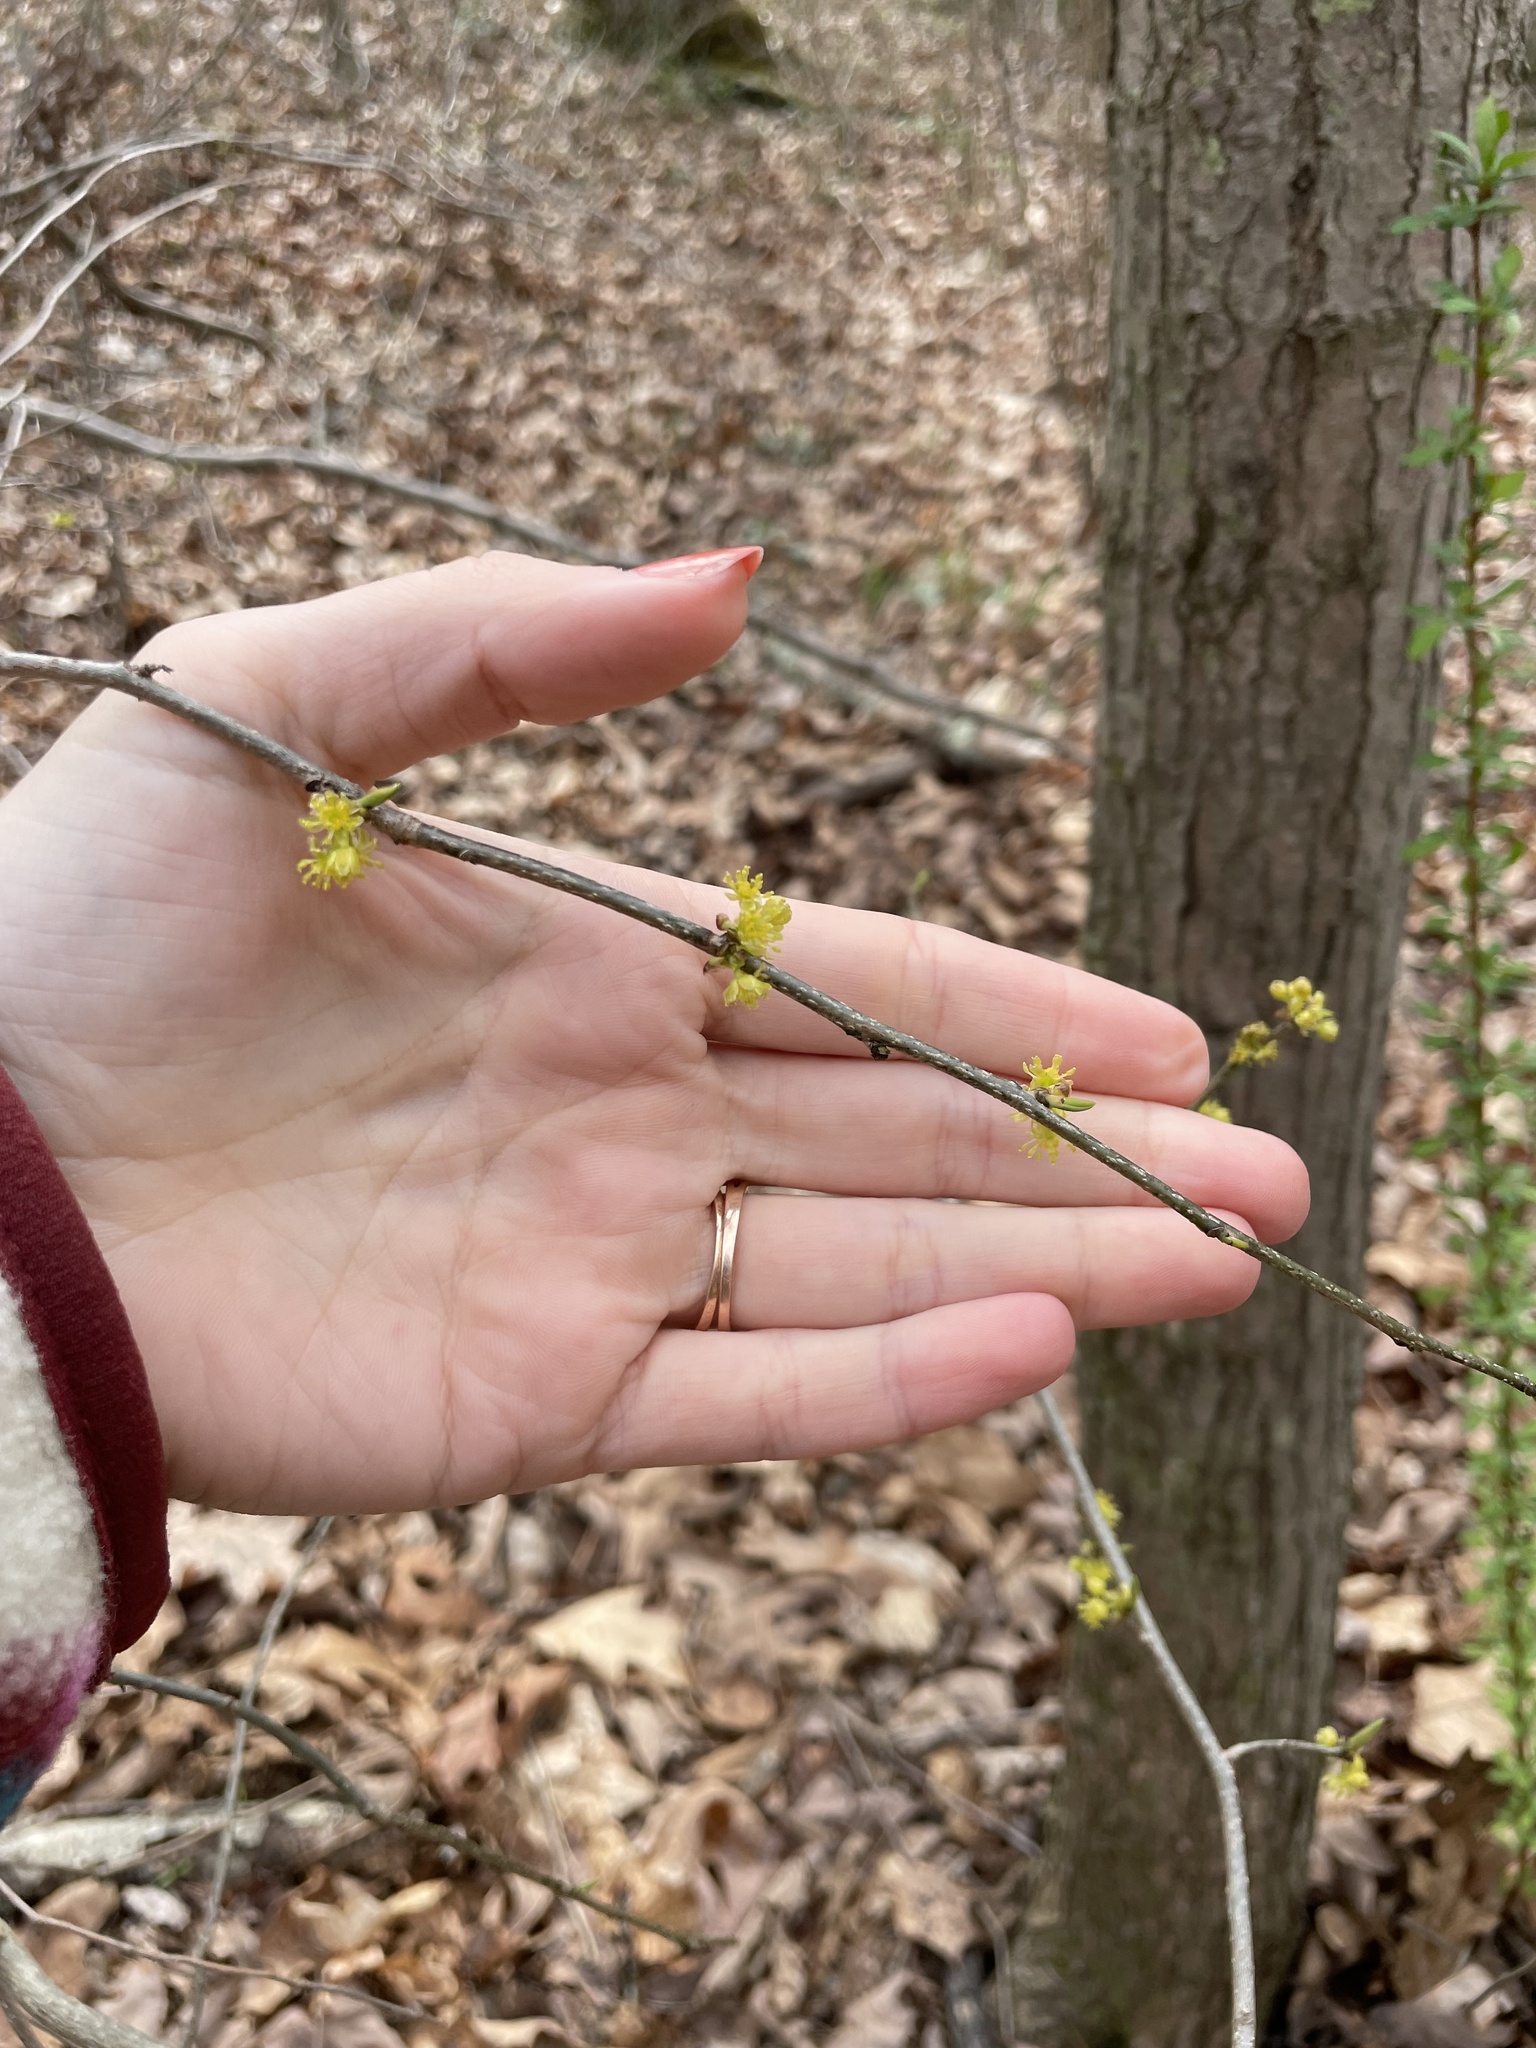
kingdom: Plantae
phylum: Tracheophyta
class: Magnoliopsida
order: Laurales
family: Lauraceae
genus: Lindera
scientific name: Lindera benzoin
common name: Spicebush
